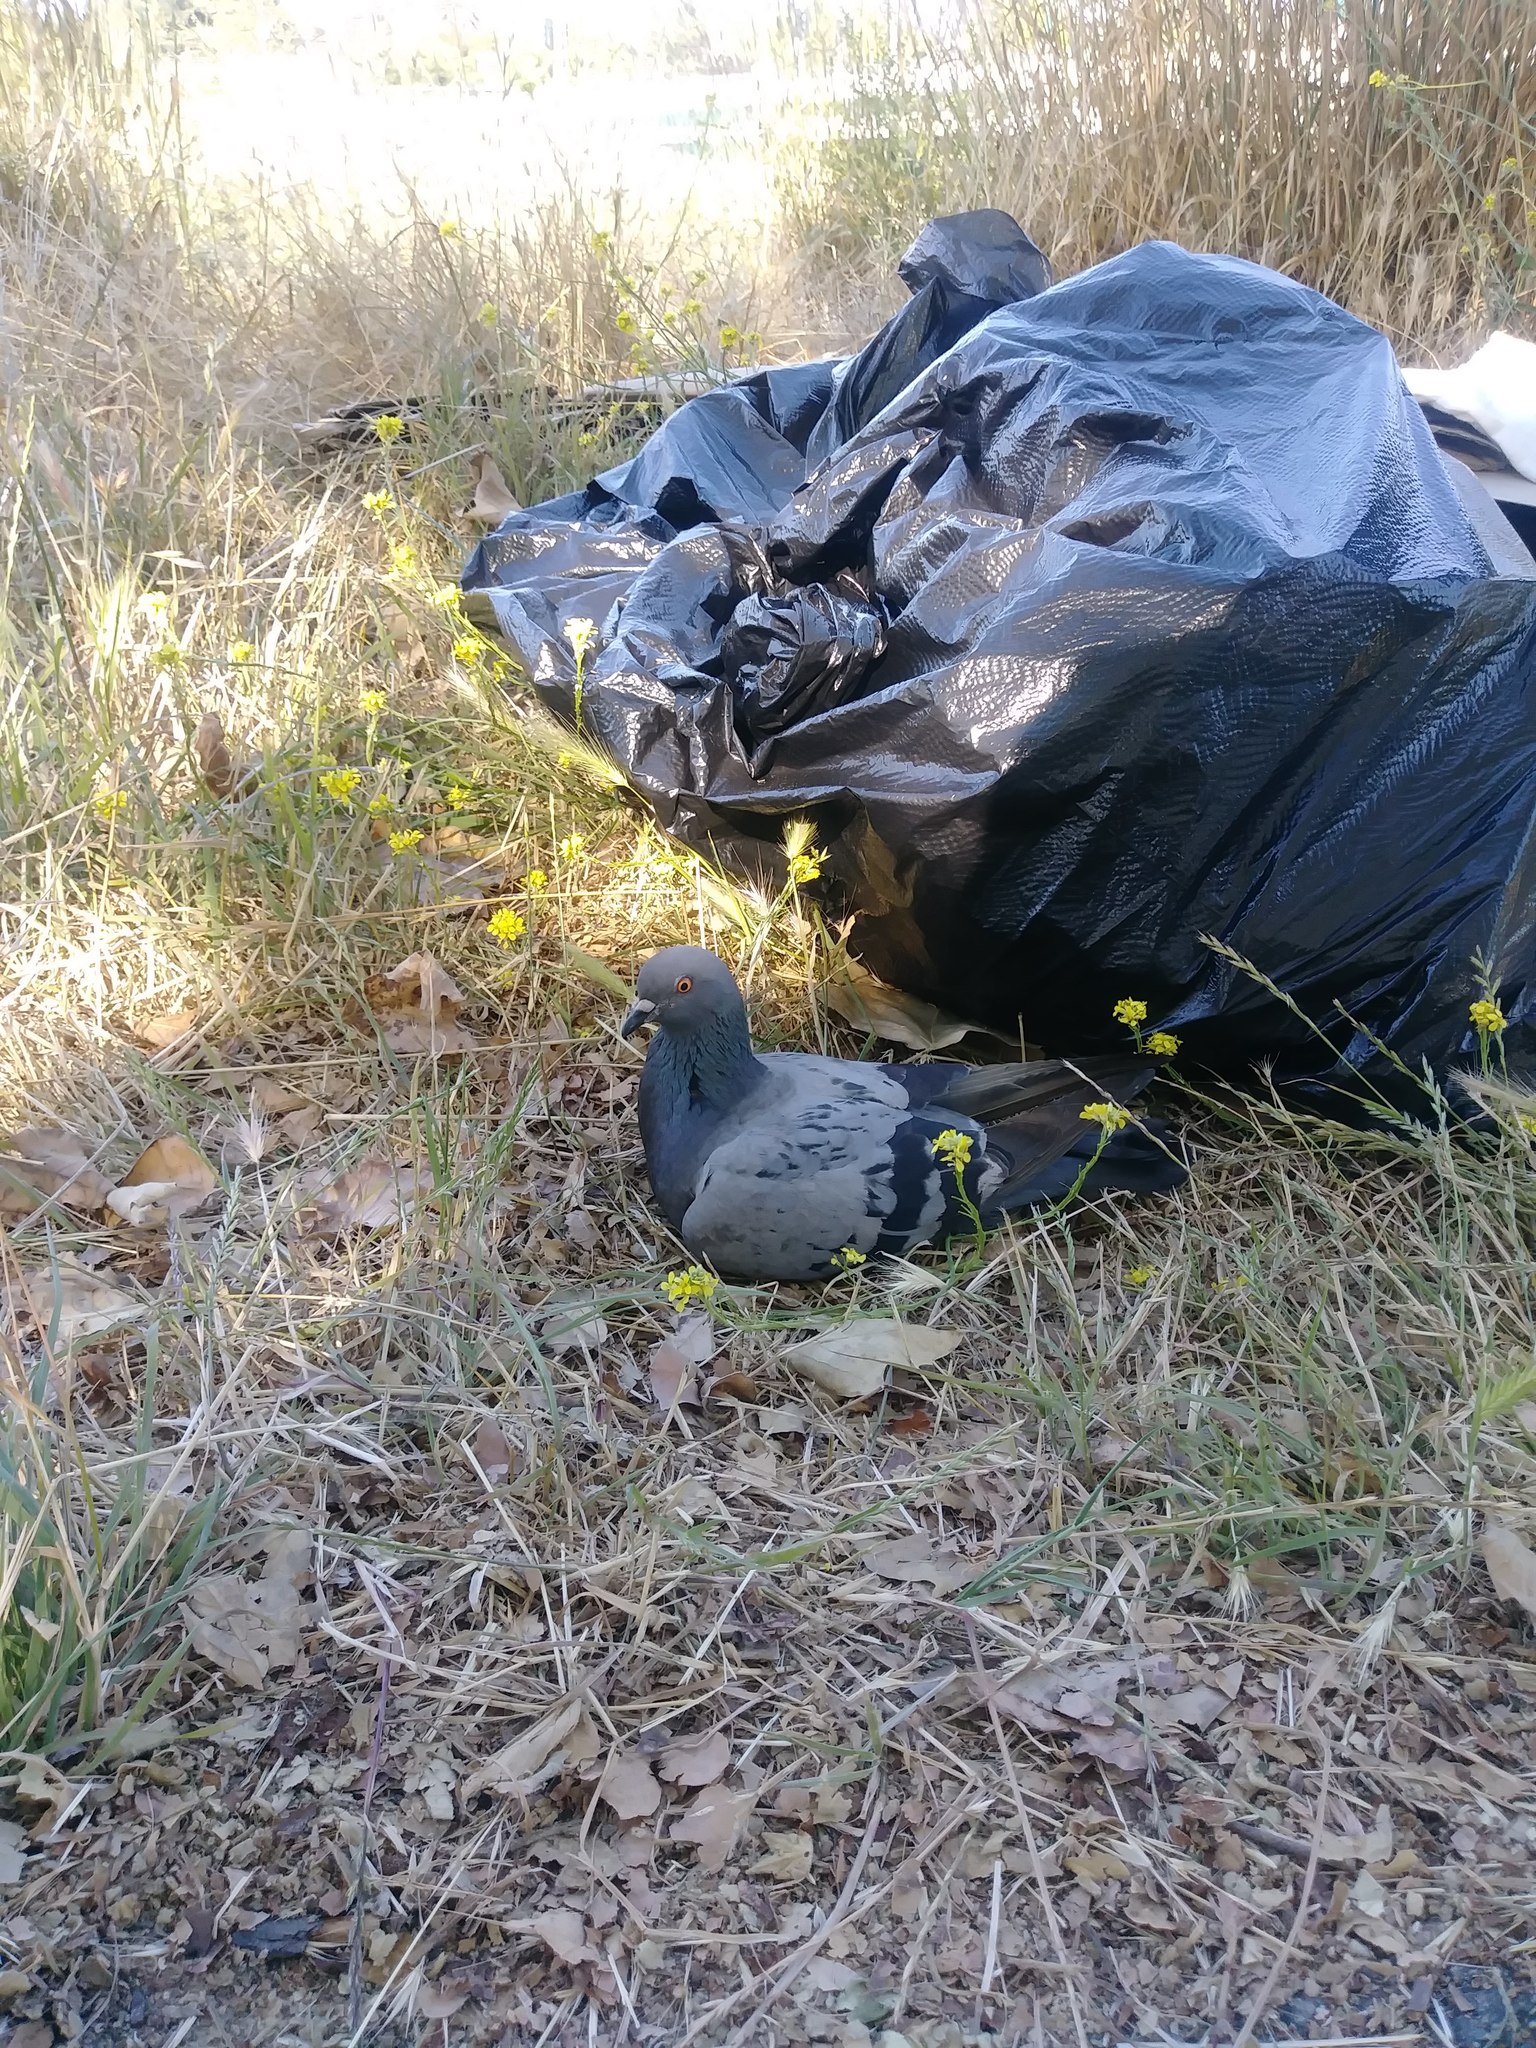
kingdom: Animalia
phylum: Chordata
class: Aves
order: Columbiformes
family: Columbidae
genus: Columba
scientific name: Columba livia
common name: Rock pigeon
